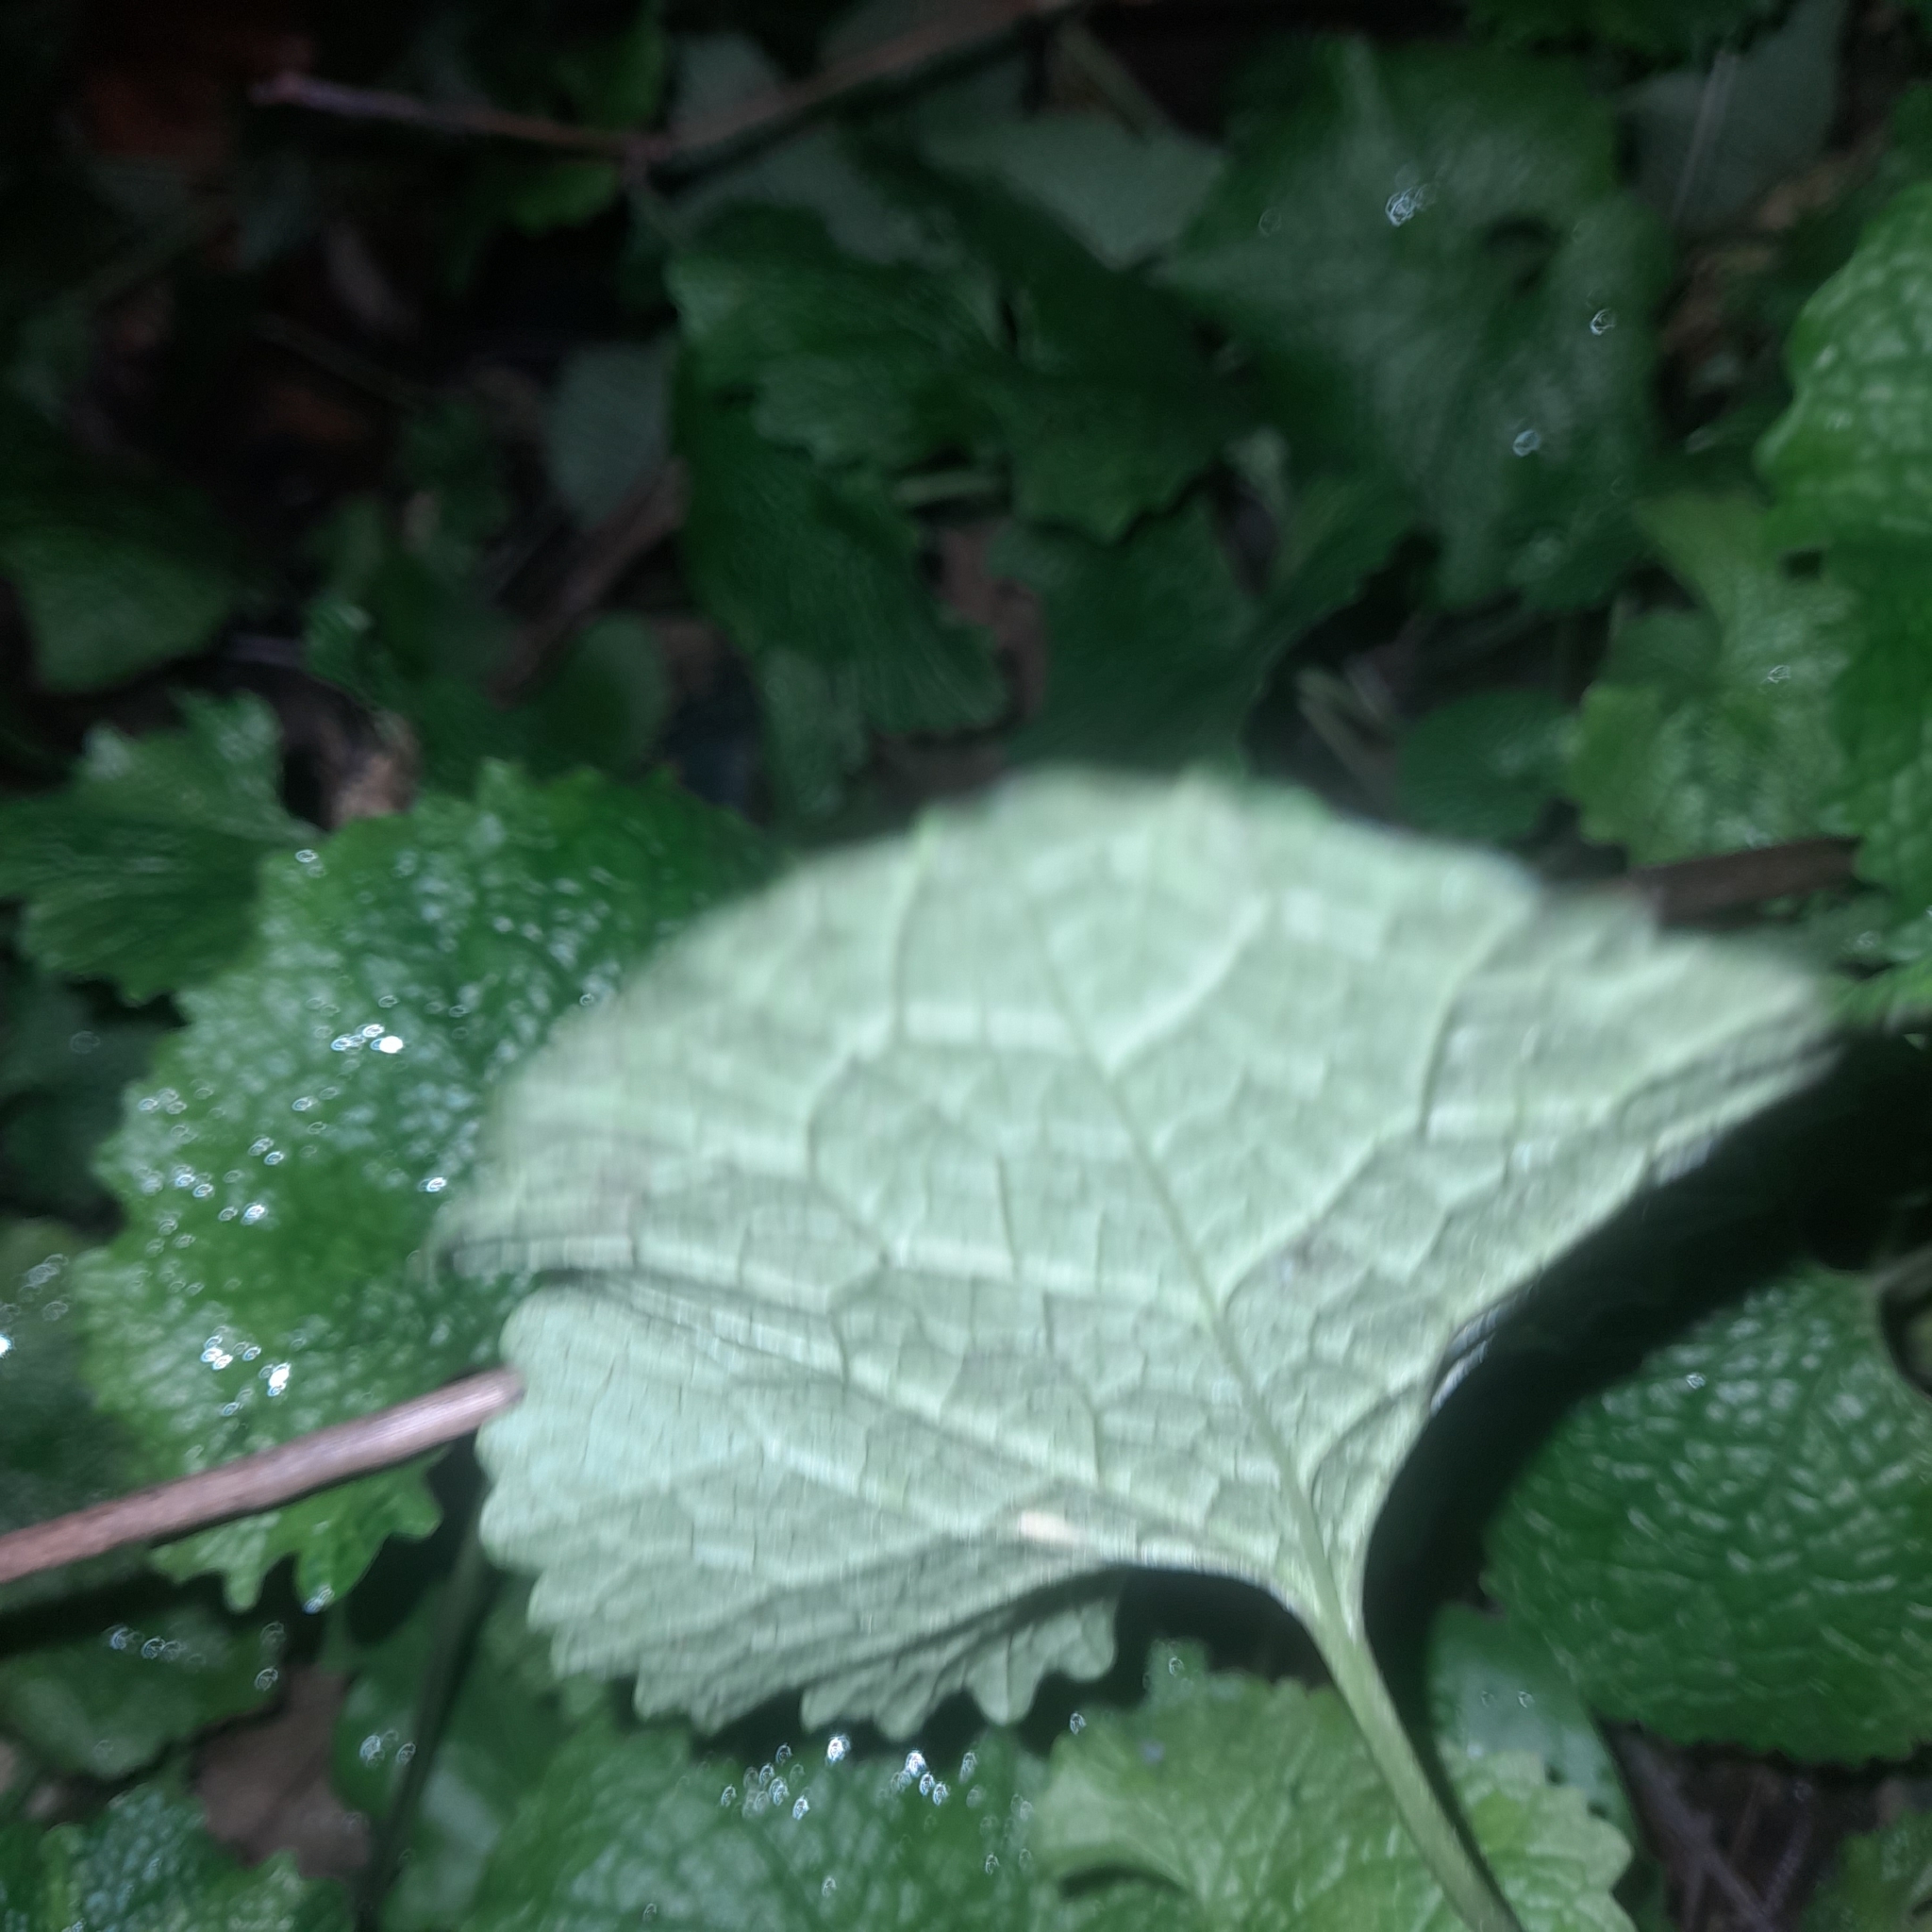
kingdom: Plantae
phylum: Tracheophyta
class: Magnoliopsida
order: Brassicales
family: Brassicaceae
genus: Alliaria
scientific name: Alliaria petiolata
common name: Garlic mustard
